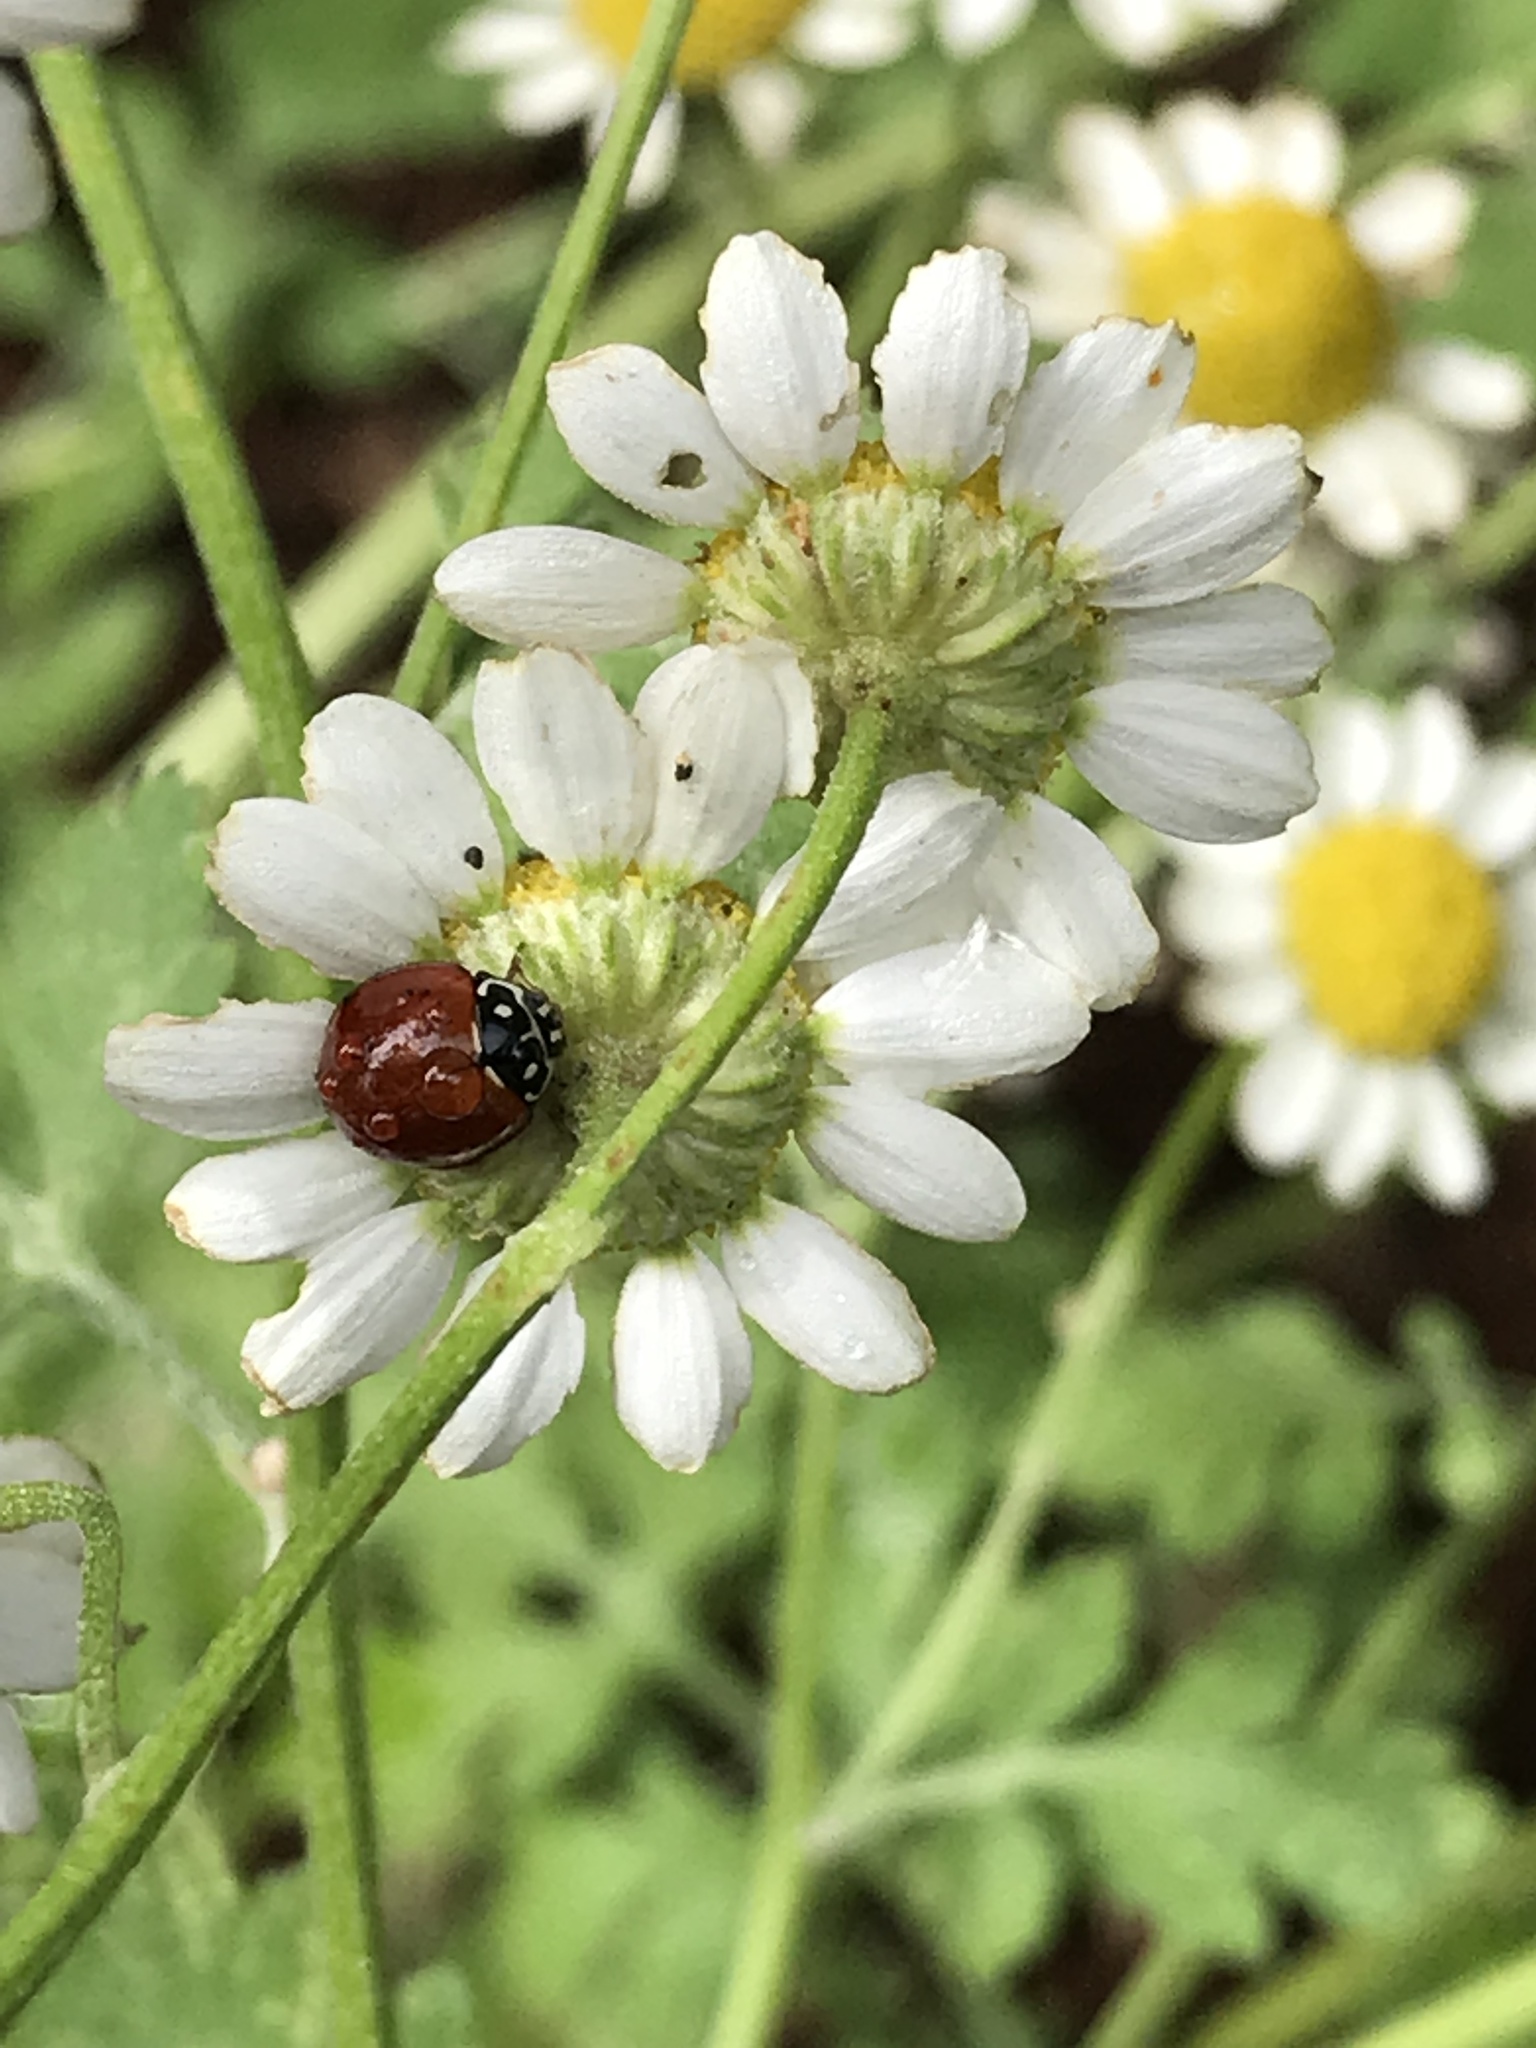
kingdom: Animalia
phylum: Arthropoda
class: Insecta
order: Coleoptera
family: Coccinellidae
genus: Cycloneda
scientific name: Cycloneda sanguinea
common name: Ladybird beetle
